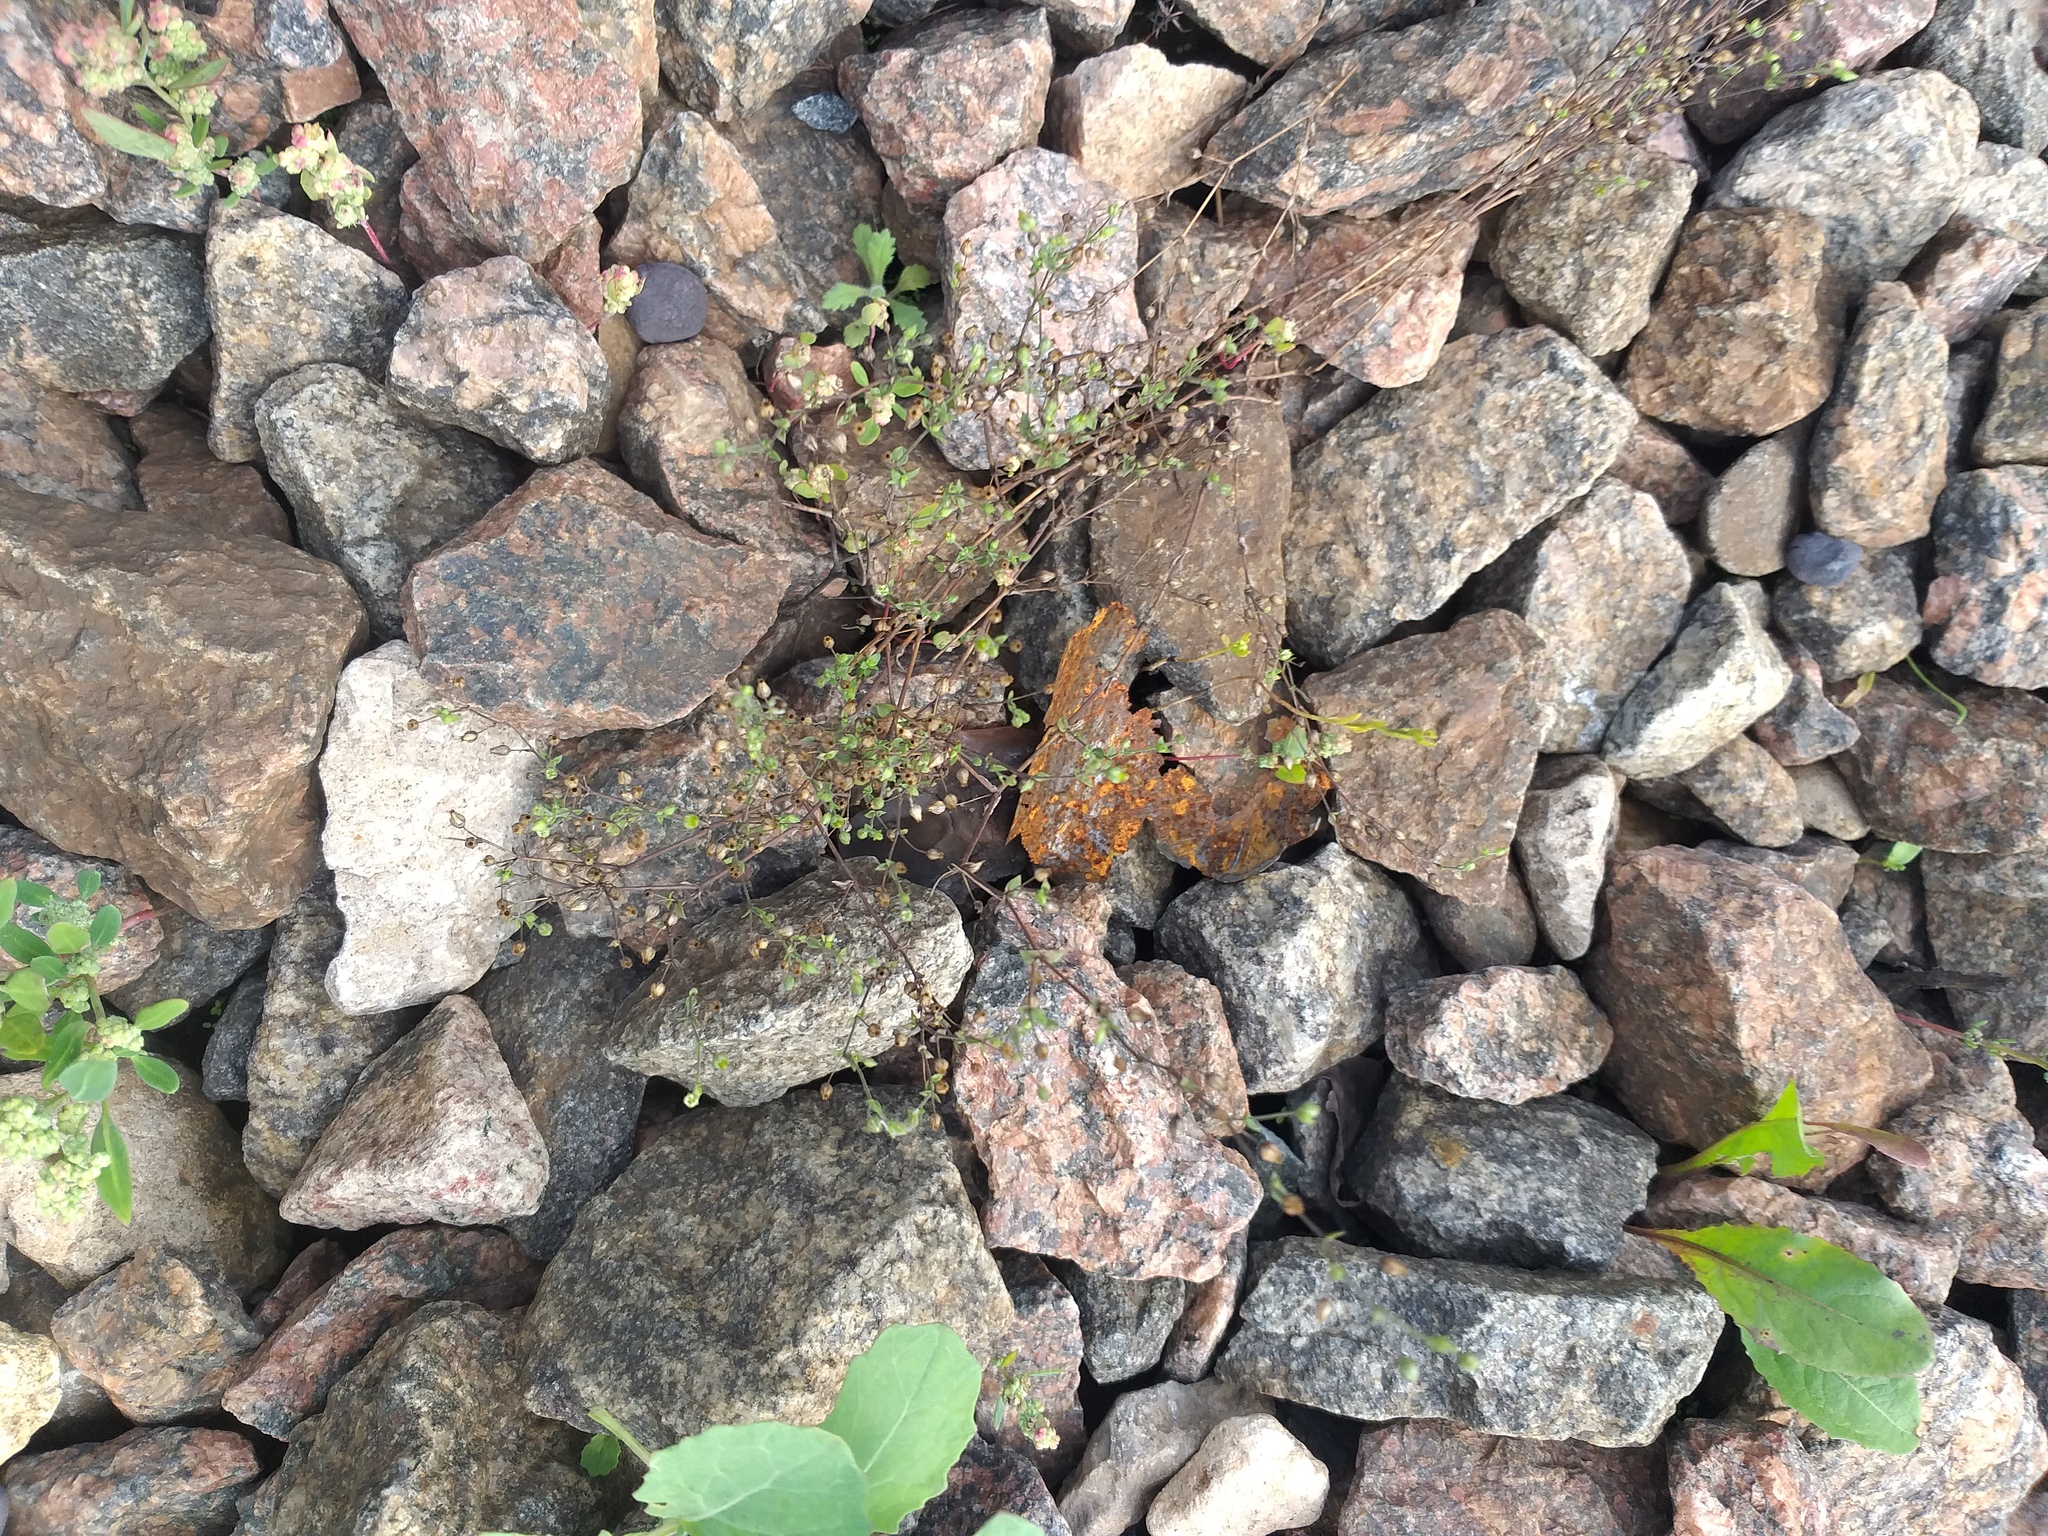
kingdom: Plantae
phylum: Tracheophyta
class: Magnoliopsida
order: Caryophyllales
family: Caryophyllaceae
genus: Arenaria
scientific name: Arenaria serpyllifolia
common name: Thyme-leaved sandwort
